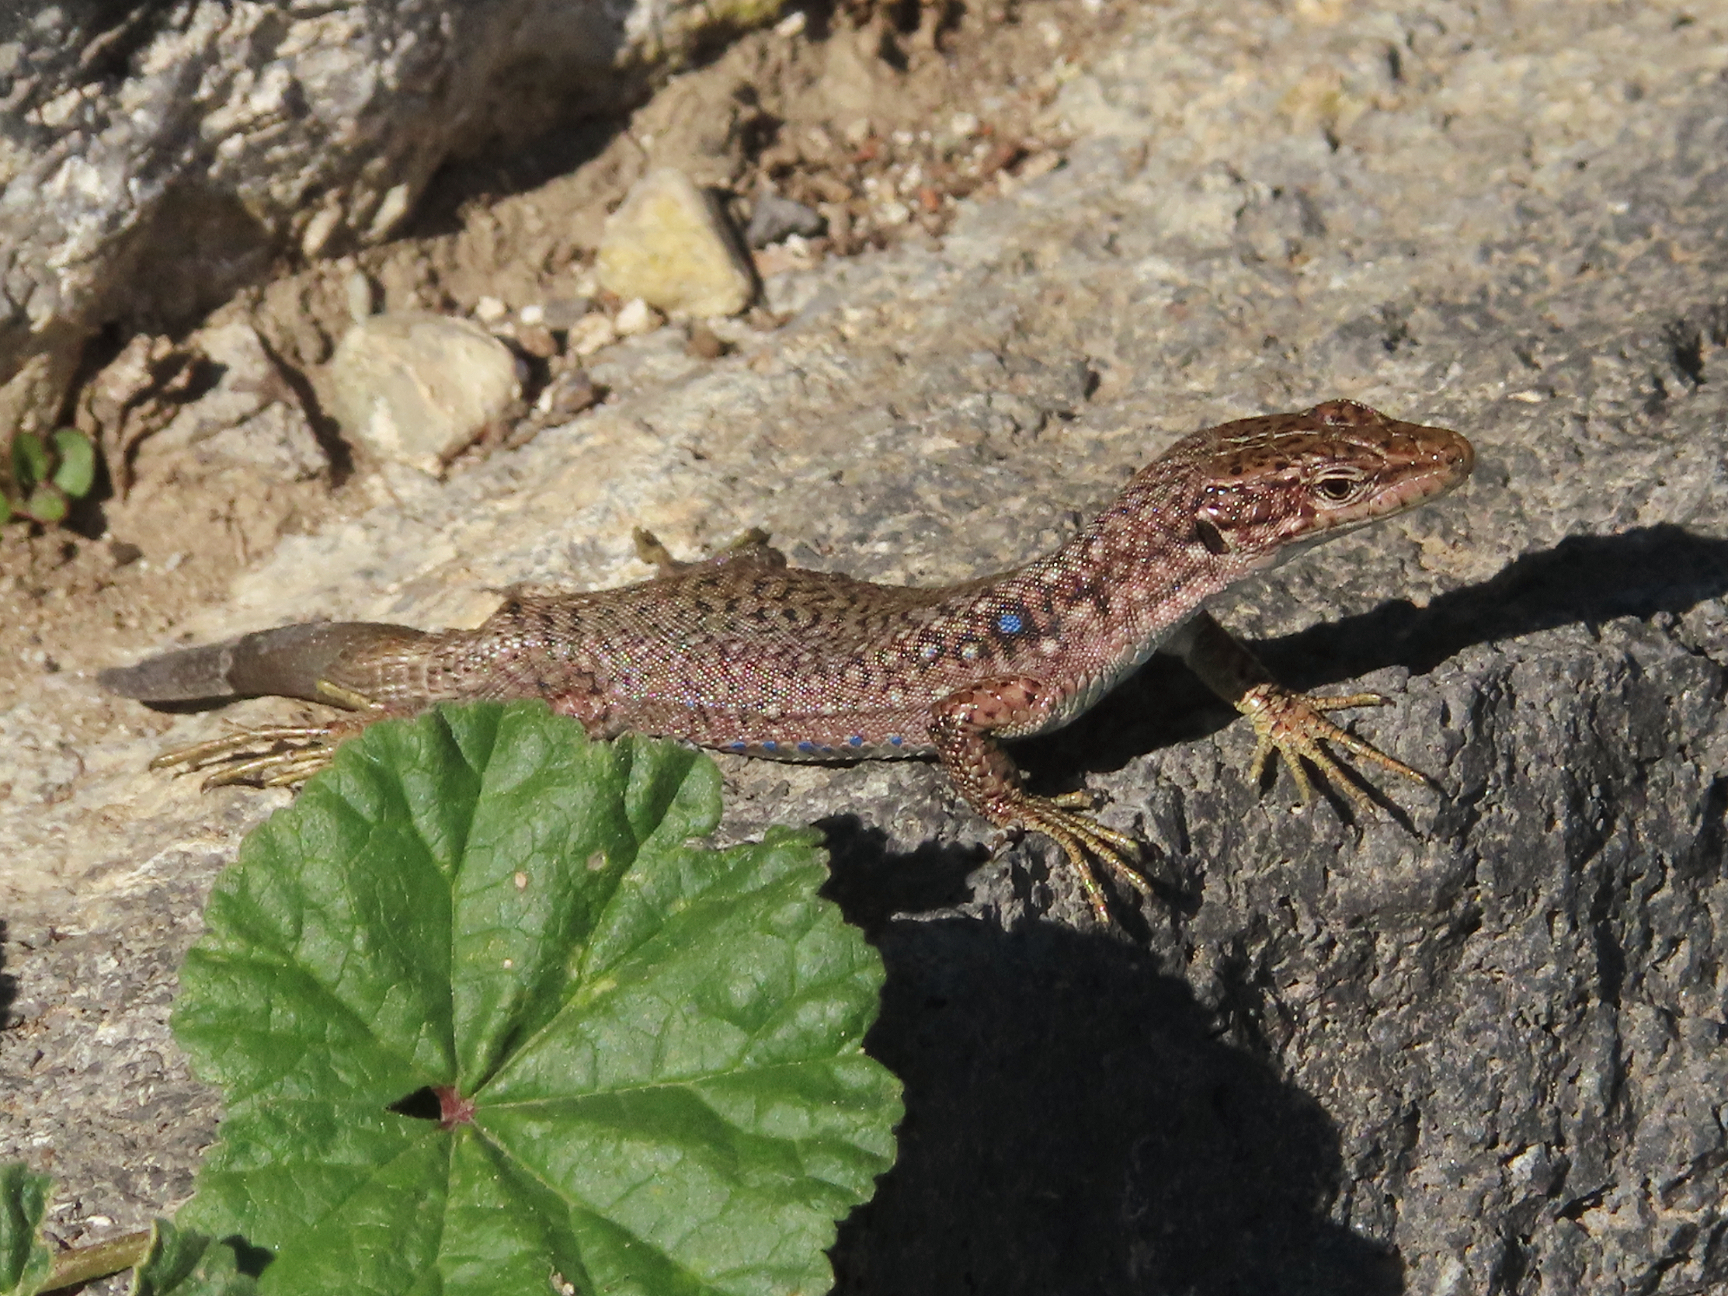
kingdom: Animalia
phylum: Chordata
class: Squamata
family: Lacertidae
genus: Darevskia
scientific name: Darevskia unisexualis
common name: Unisexual lizard
